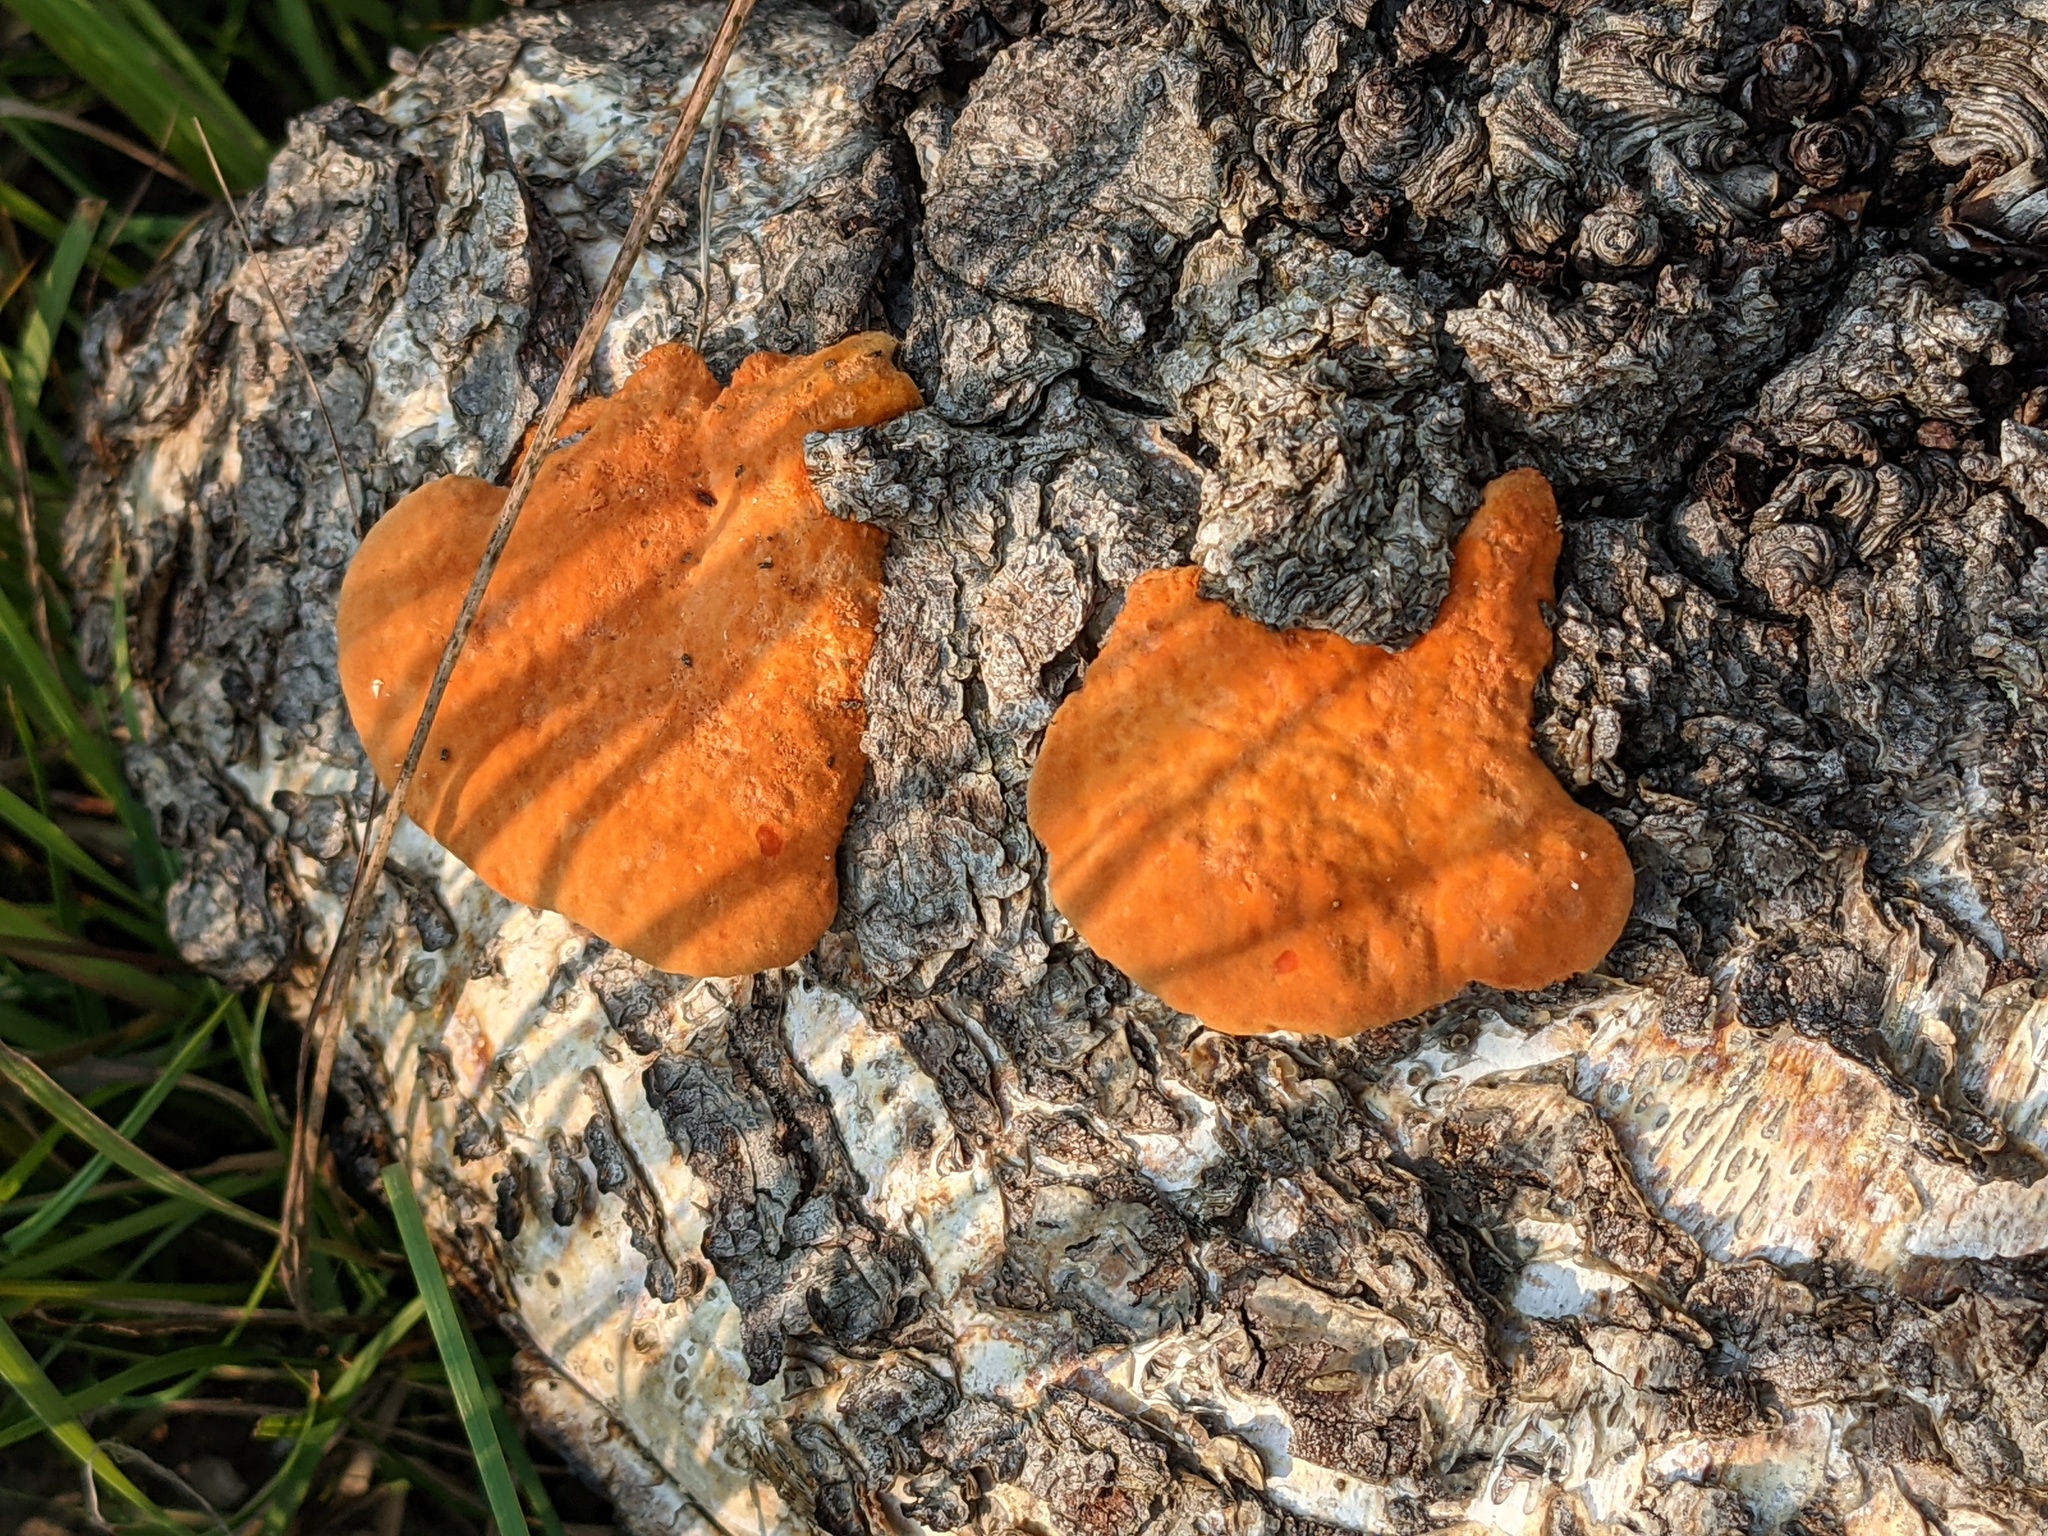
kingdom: Fungi
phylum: Basidiomycota
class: Agaricomycetes
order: Polyporales
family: Polyporaceae
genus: Trametes
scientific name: Trametes cinnabarina
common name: Northern cinnabar polypore
